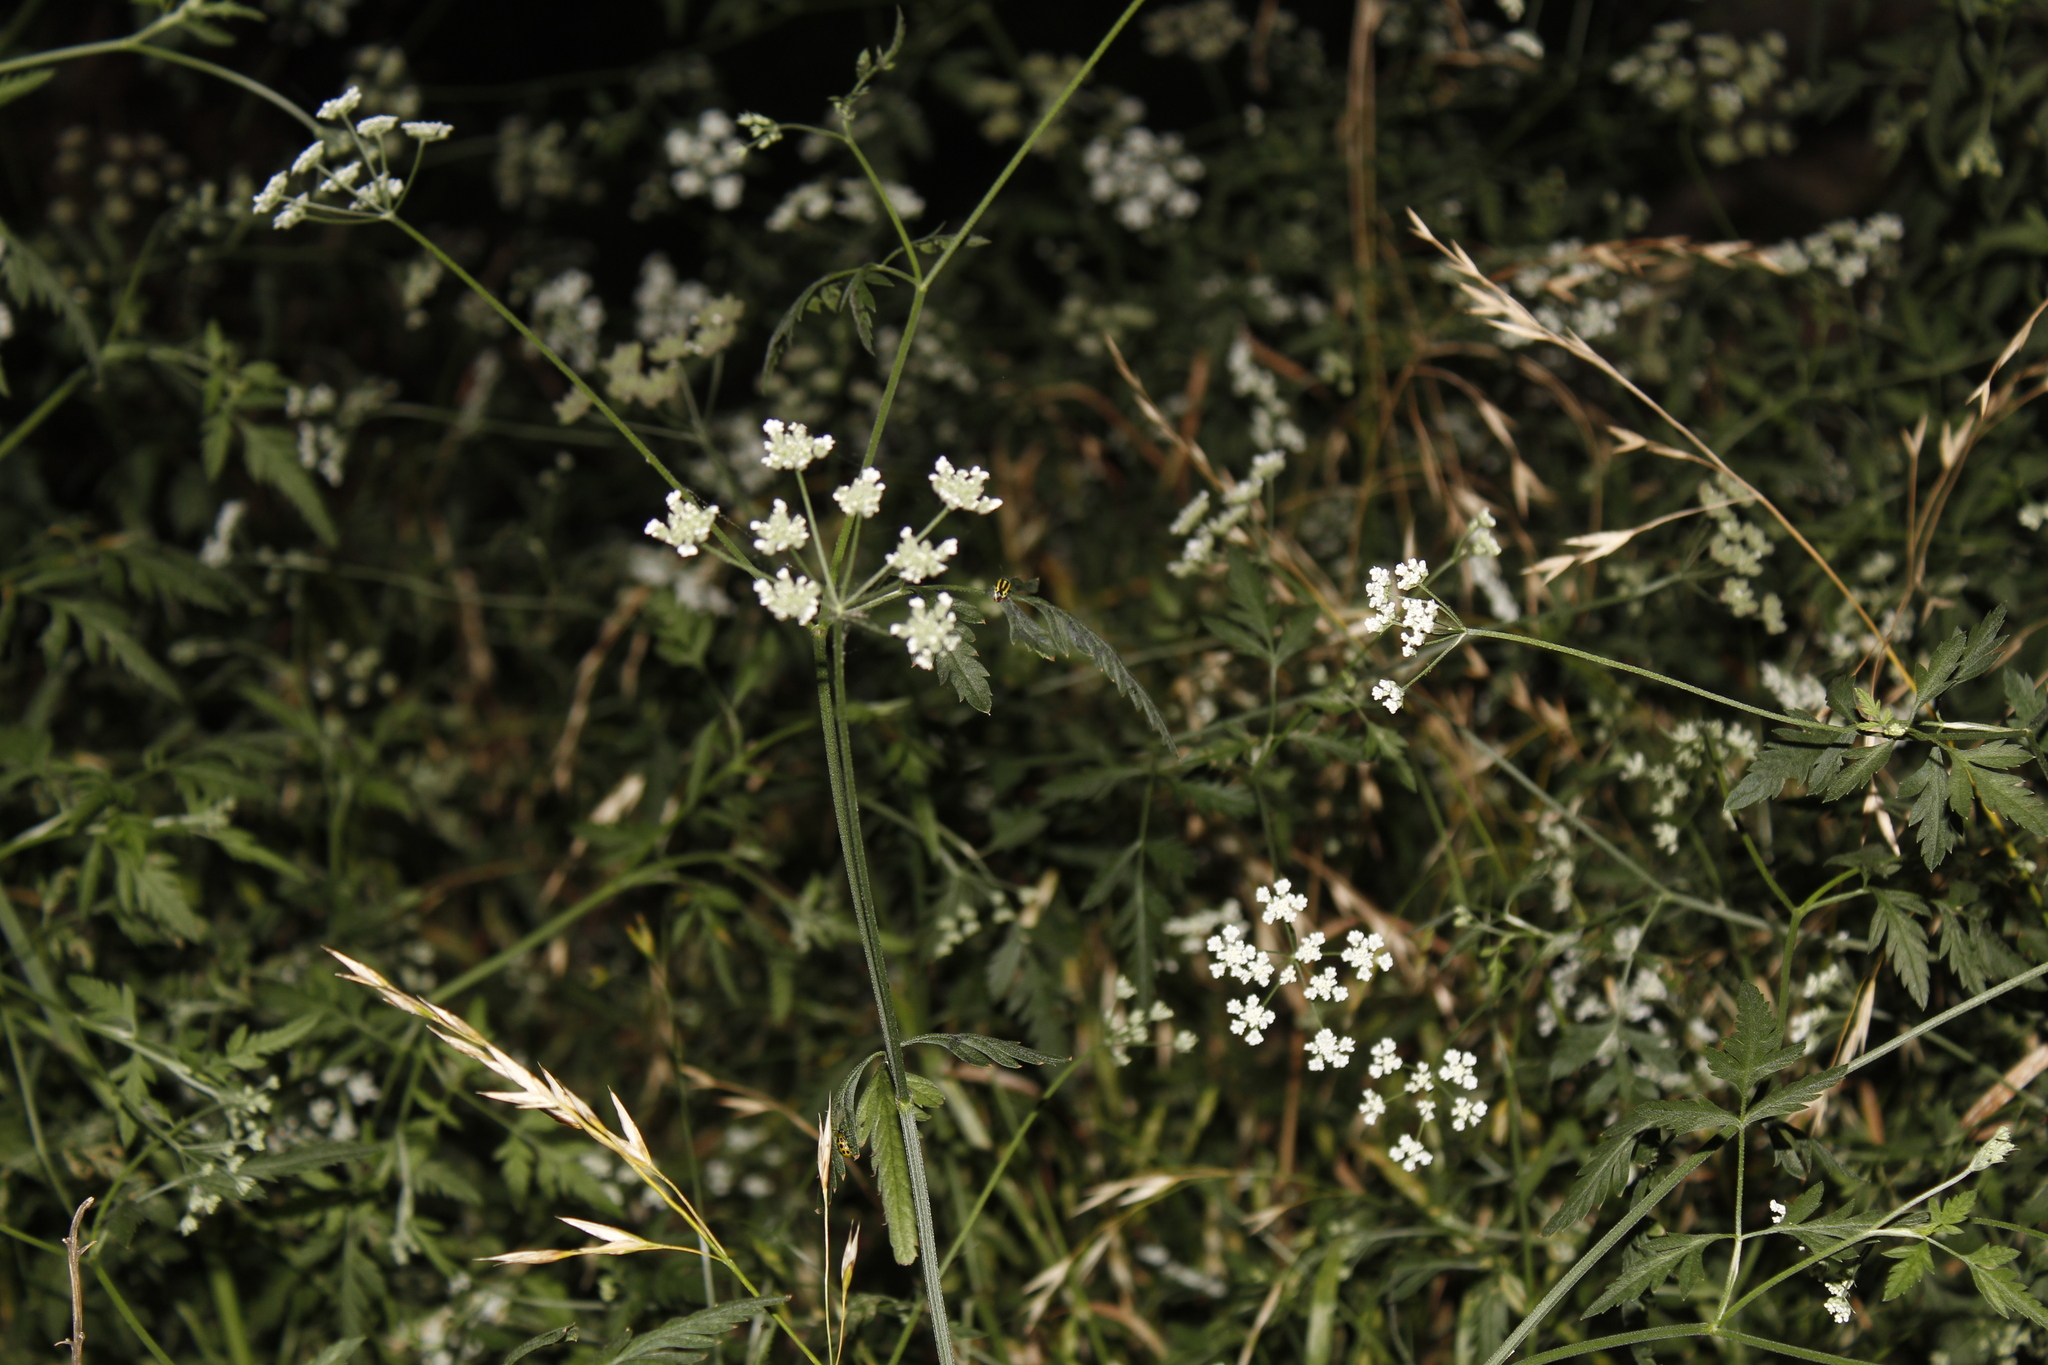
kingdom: Plantae
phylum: Tracheophyta
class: Magnoliopsida
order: Apiales
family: Apiaceae
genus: Torilis
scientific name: Torilis arvensis
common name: Spreading hedge-parsley
